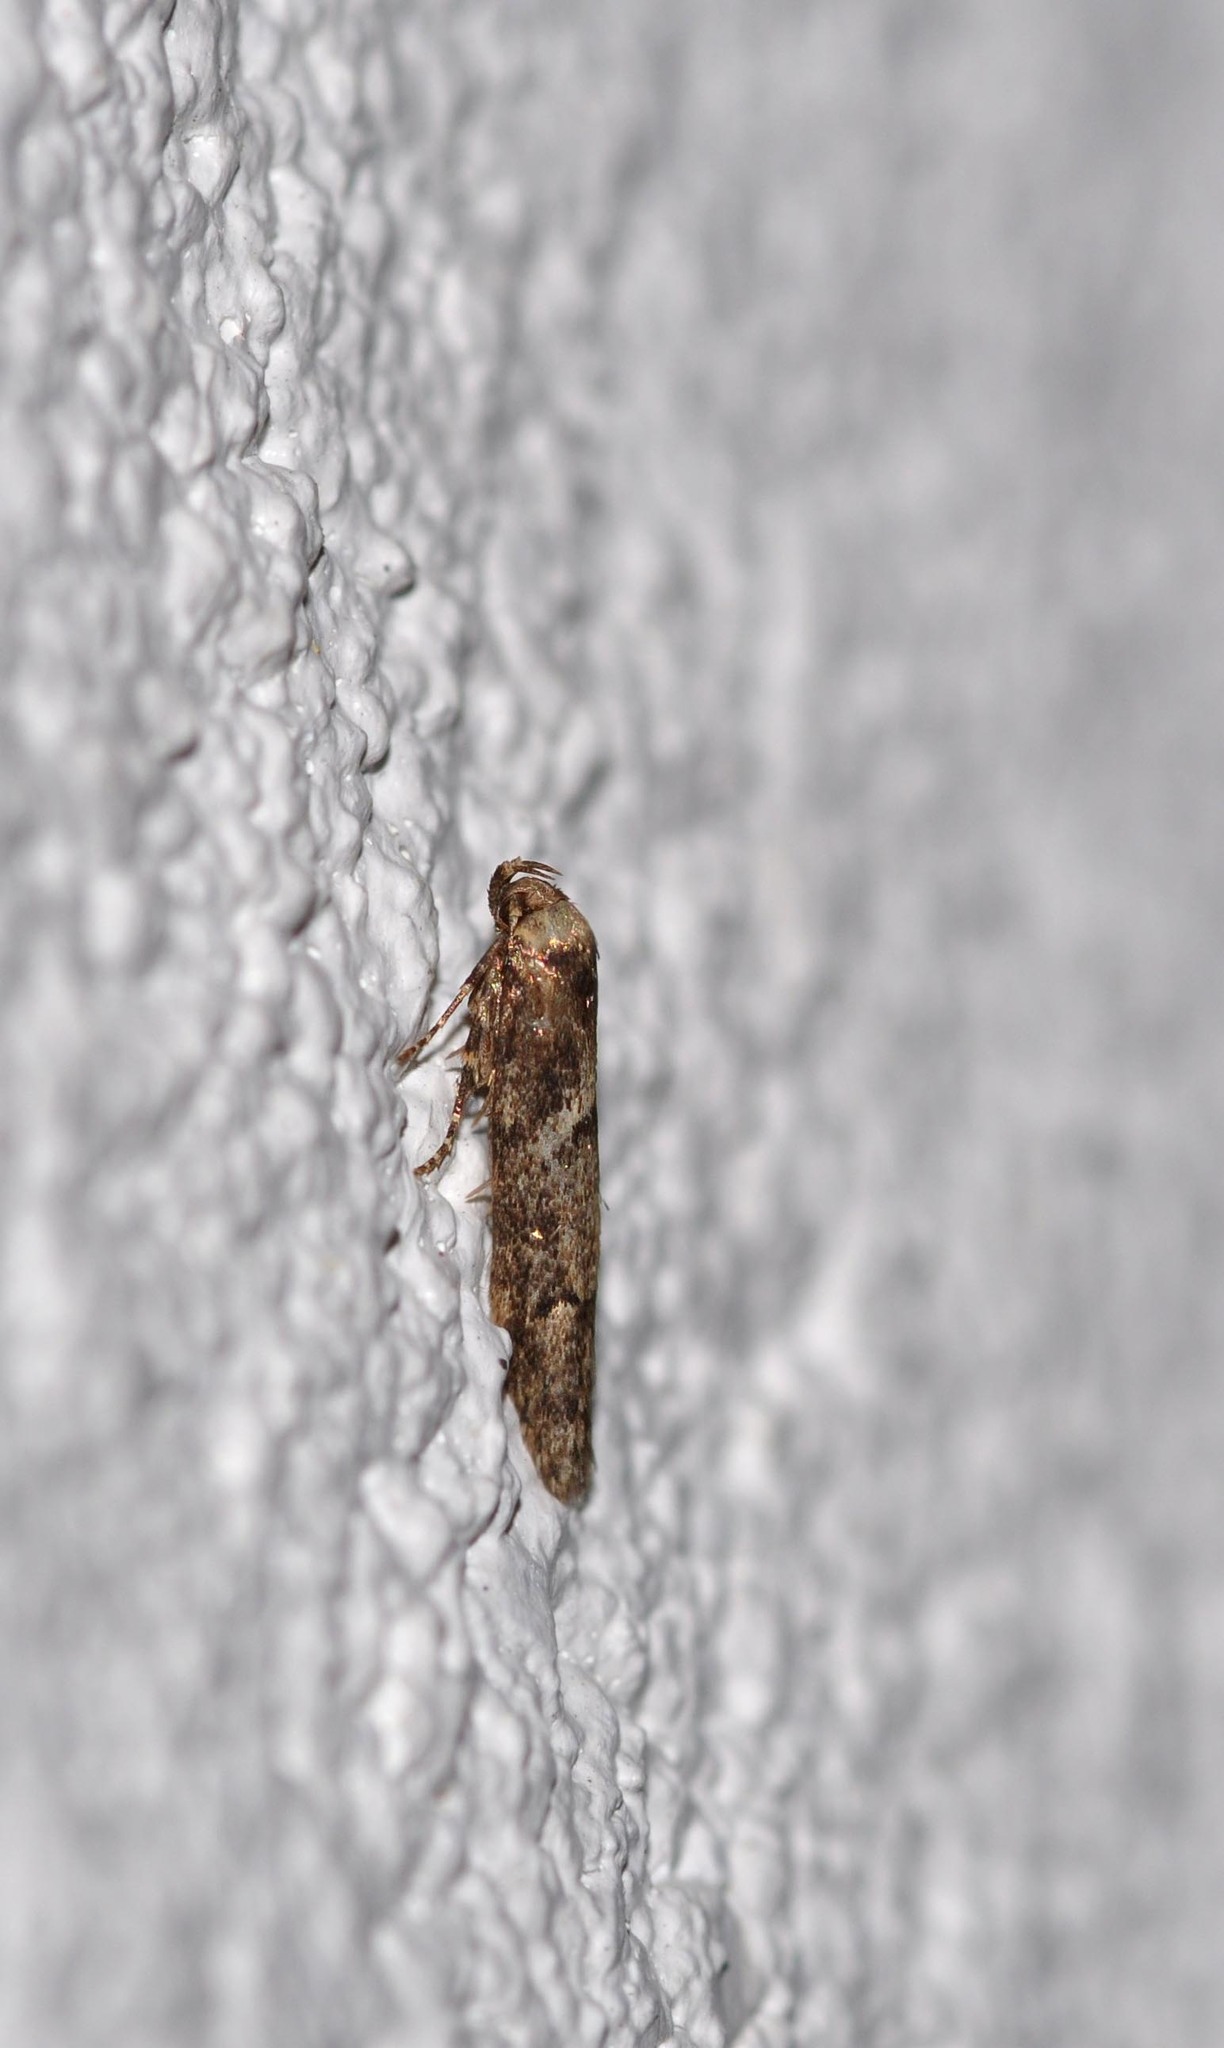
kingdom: Animalia
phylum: Arthropoda
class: Insecta
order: Lepidoptera
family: Blastobasidae
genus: Blastobasis
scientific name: Blastobasis adustella
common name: Dingy dowd
